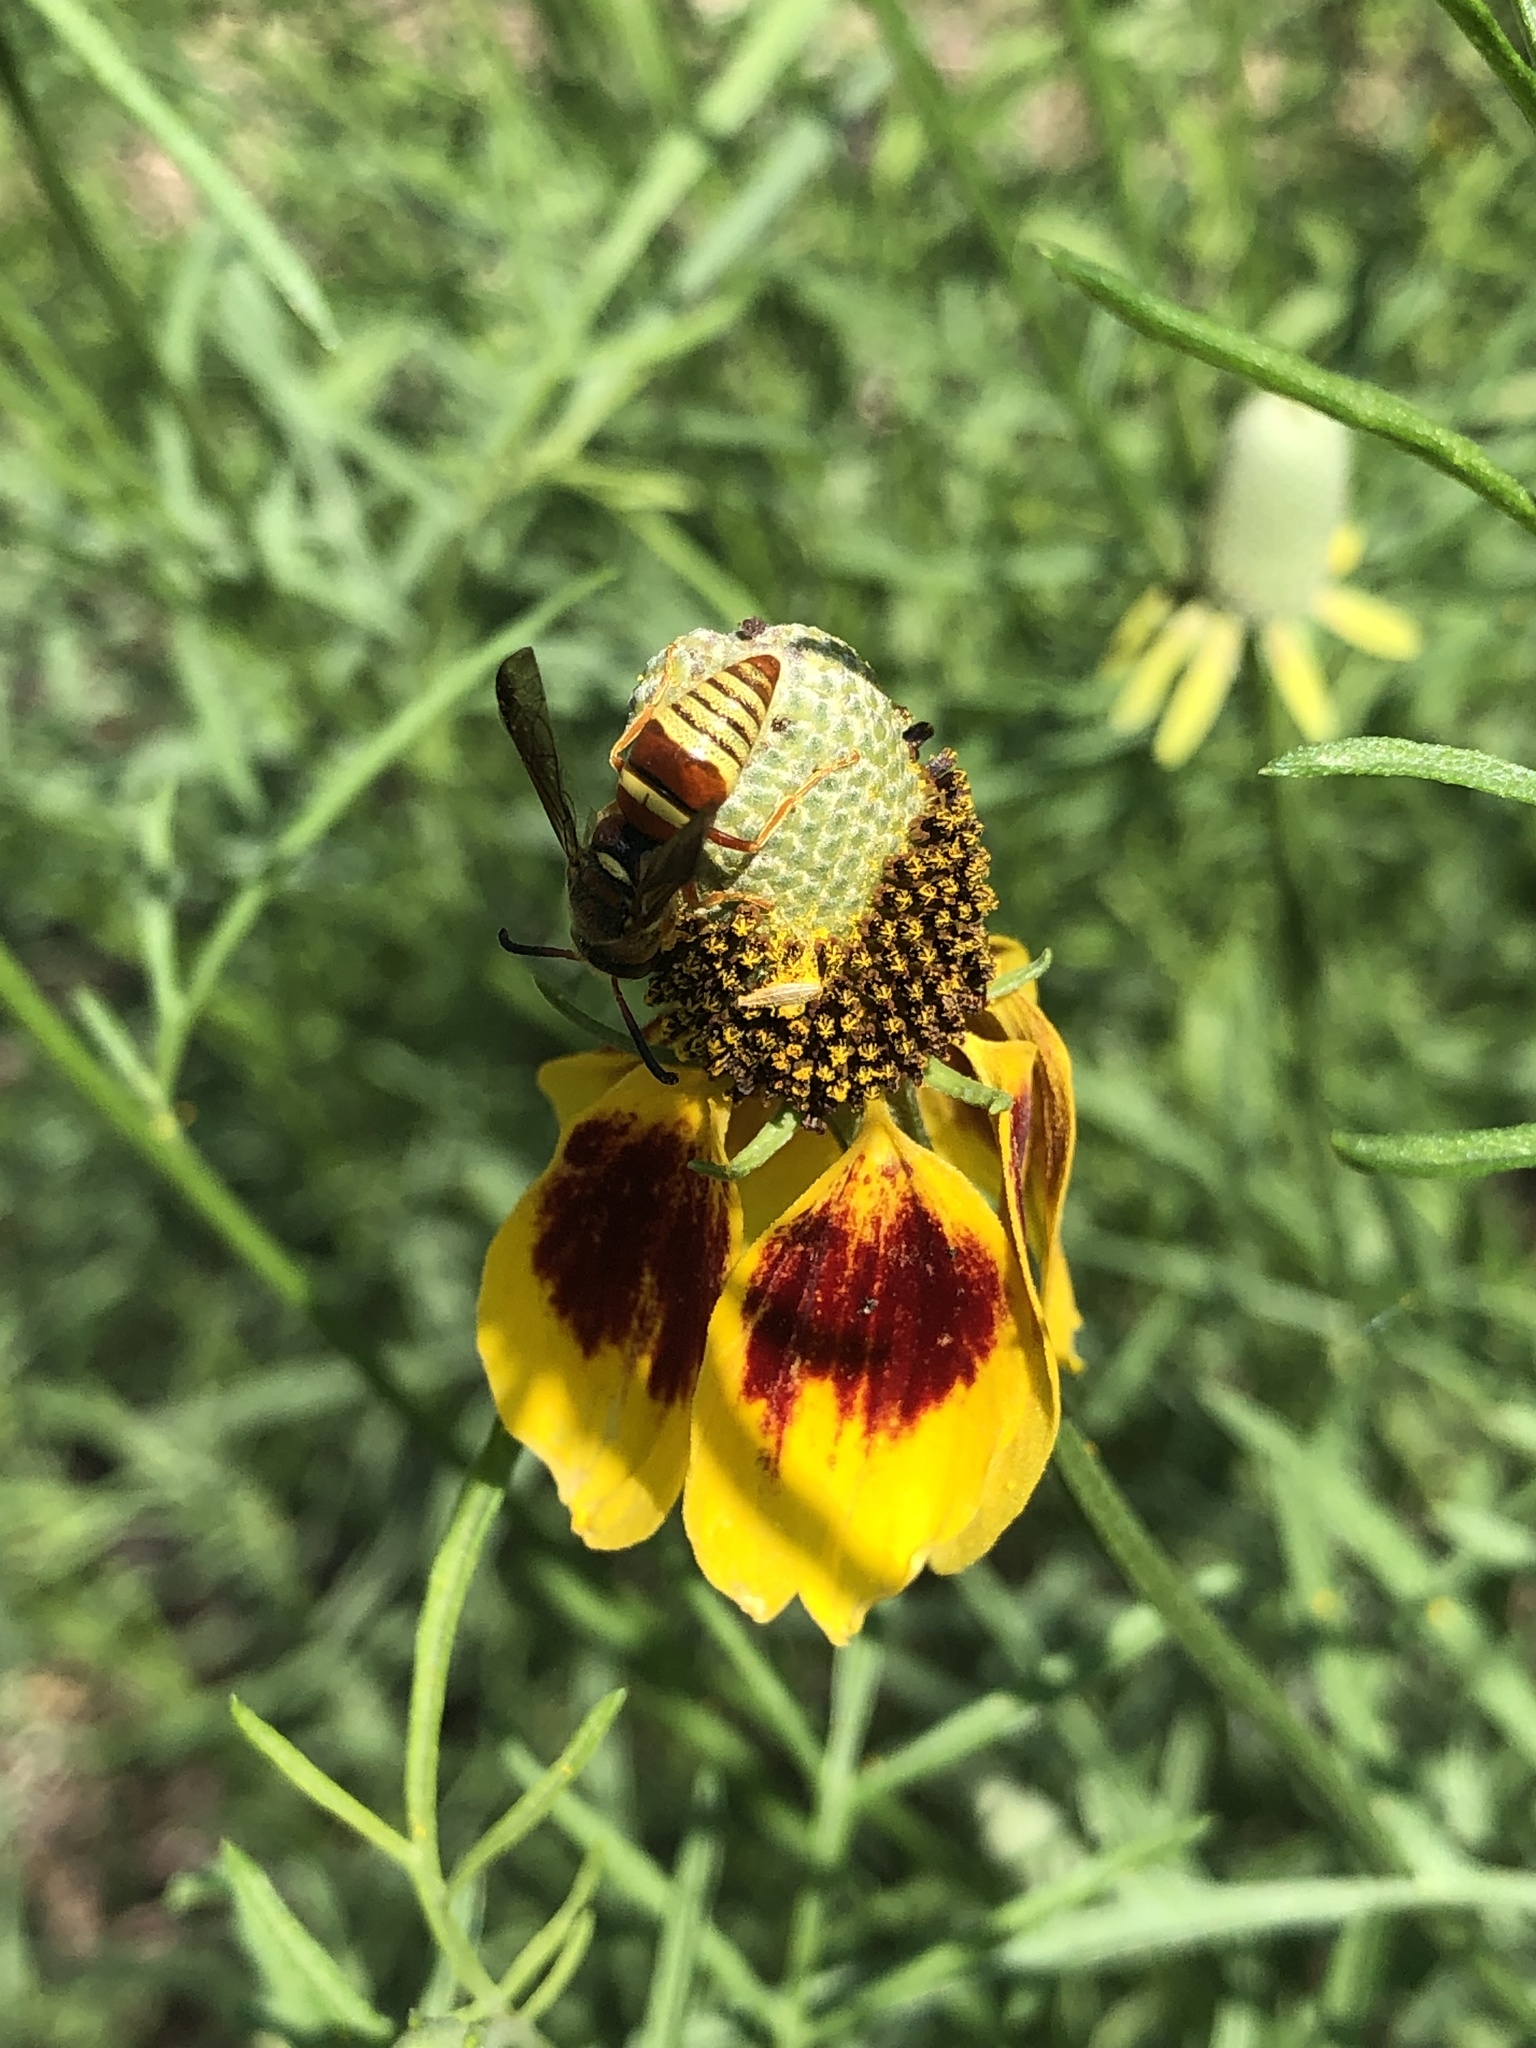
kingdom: Animalia
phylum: Arthropoda
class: Insecta
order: Hymenoptera
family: Eumenidae
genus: Euodynerus
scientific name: Euodynerus pratensis
